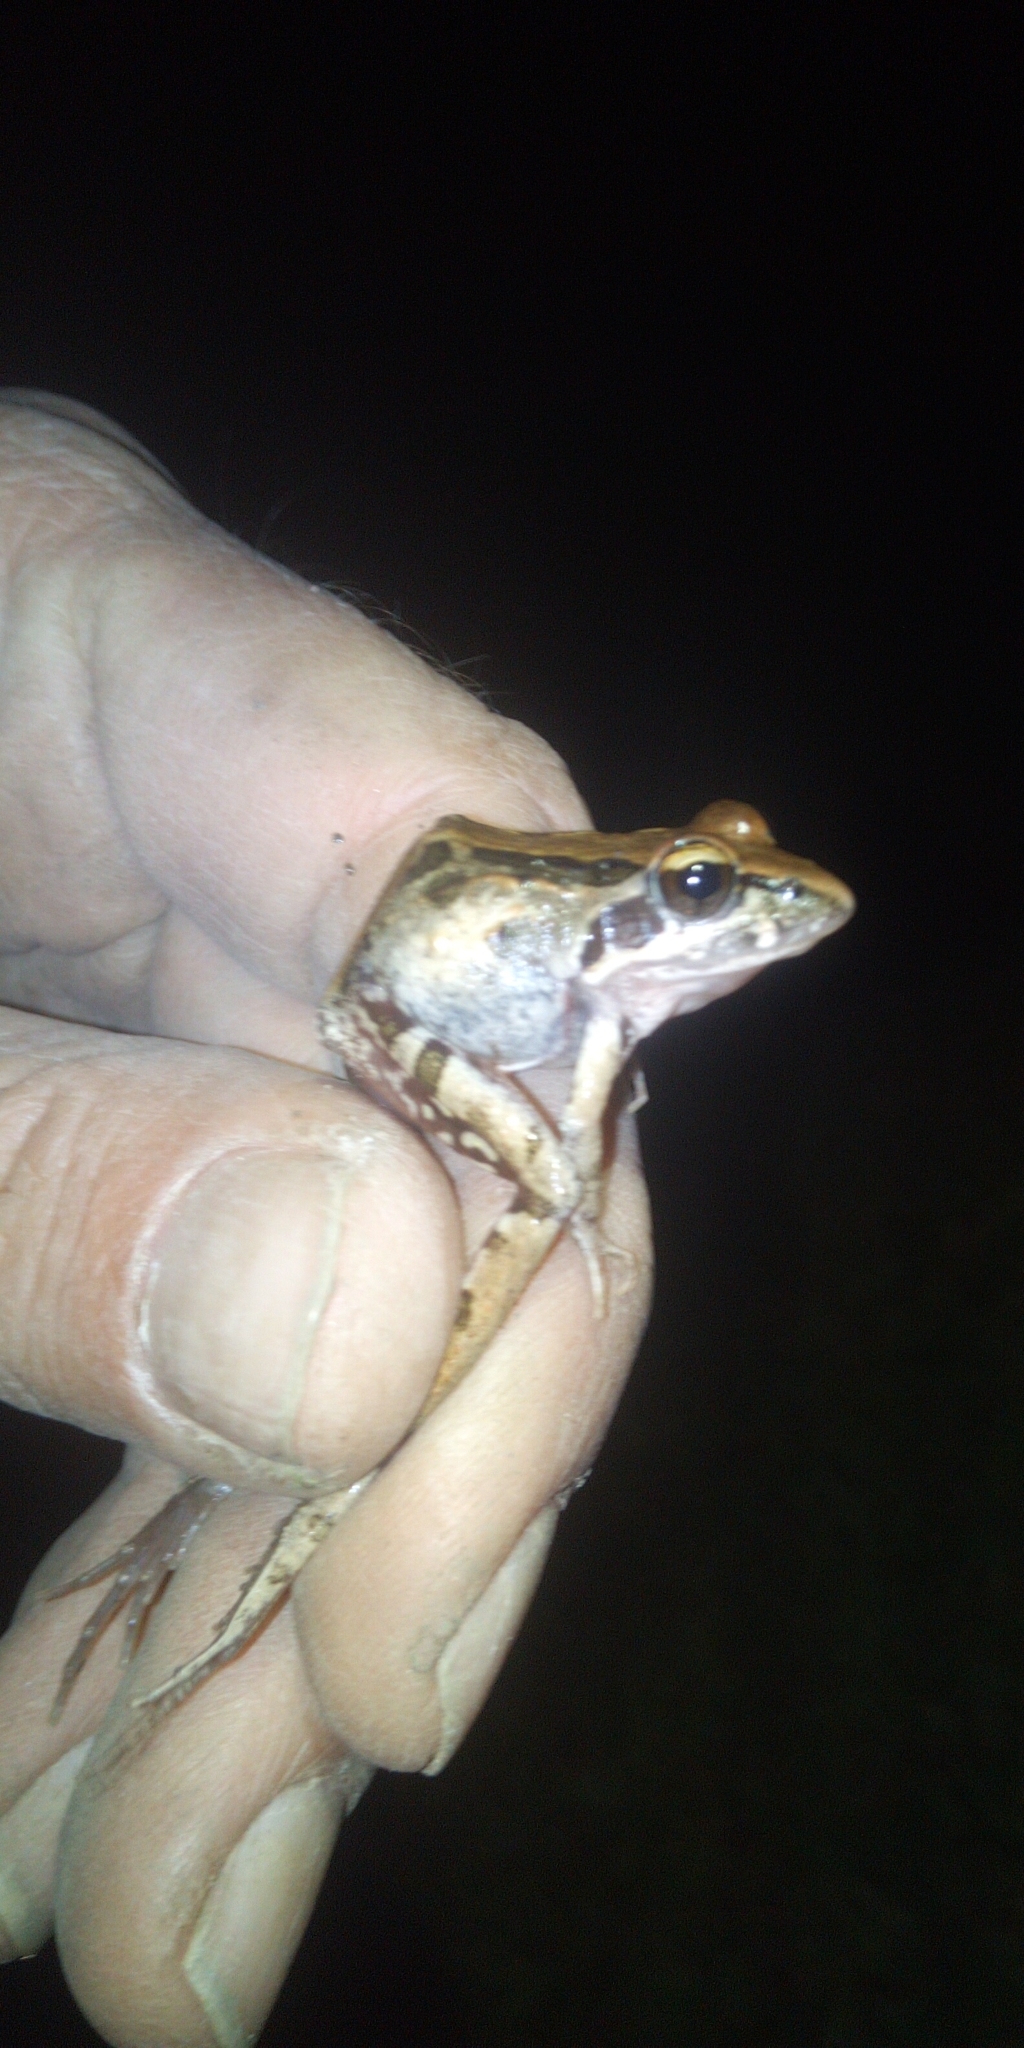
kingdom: Animalia
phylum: Chordata
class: Amphibia
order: Anura
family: Pyxicephalidae
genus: Strongylopus
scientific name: Strongylopus grayii
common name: Gray's stream frog
